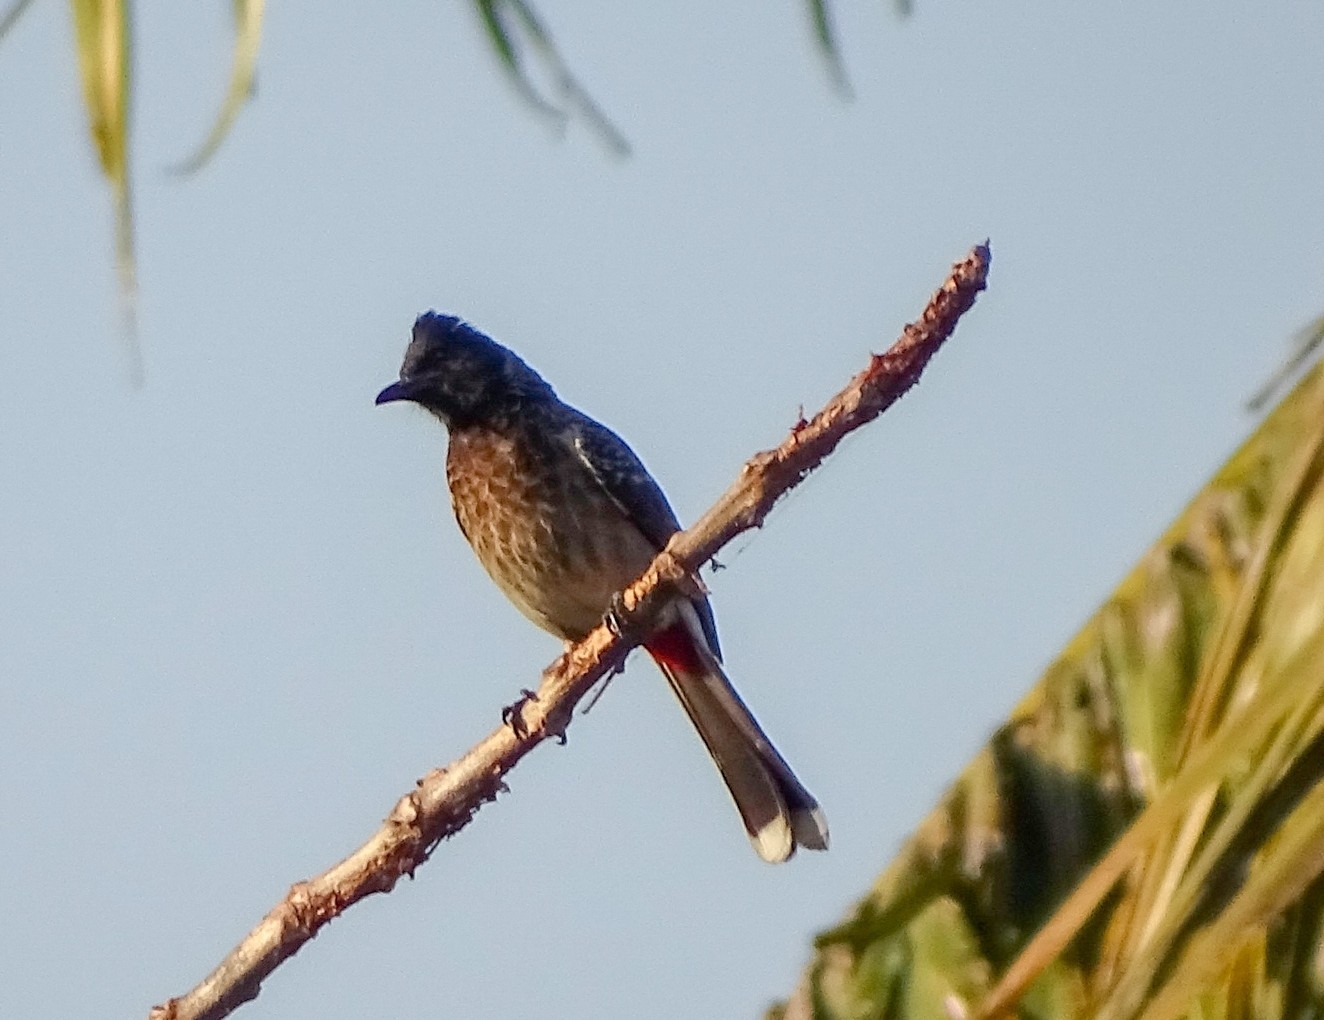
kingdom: Animalia
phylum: Chordata
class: Aves
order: Passeriformes
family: Pycnonotidae
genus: Pycnonotus
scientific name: Pycnonotus cafer
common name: Red-vented bulbul
